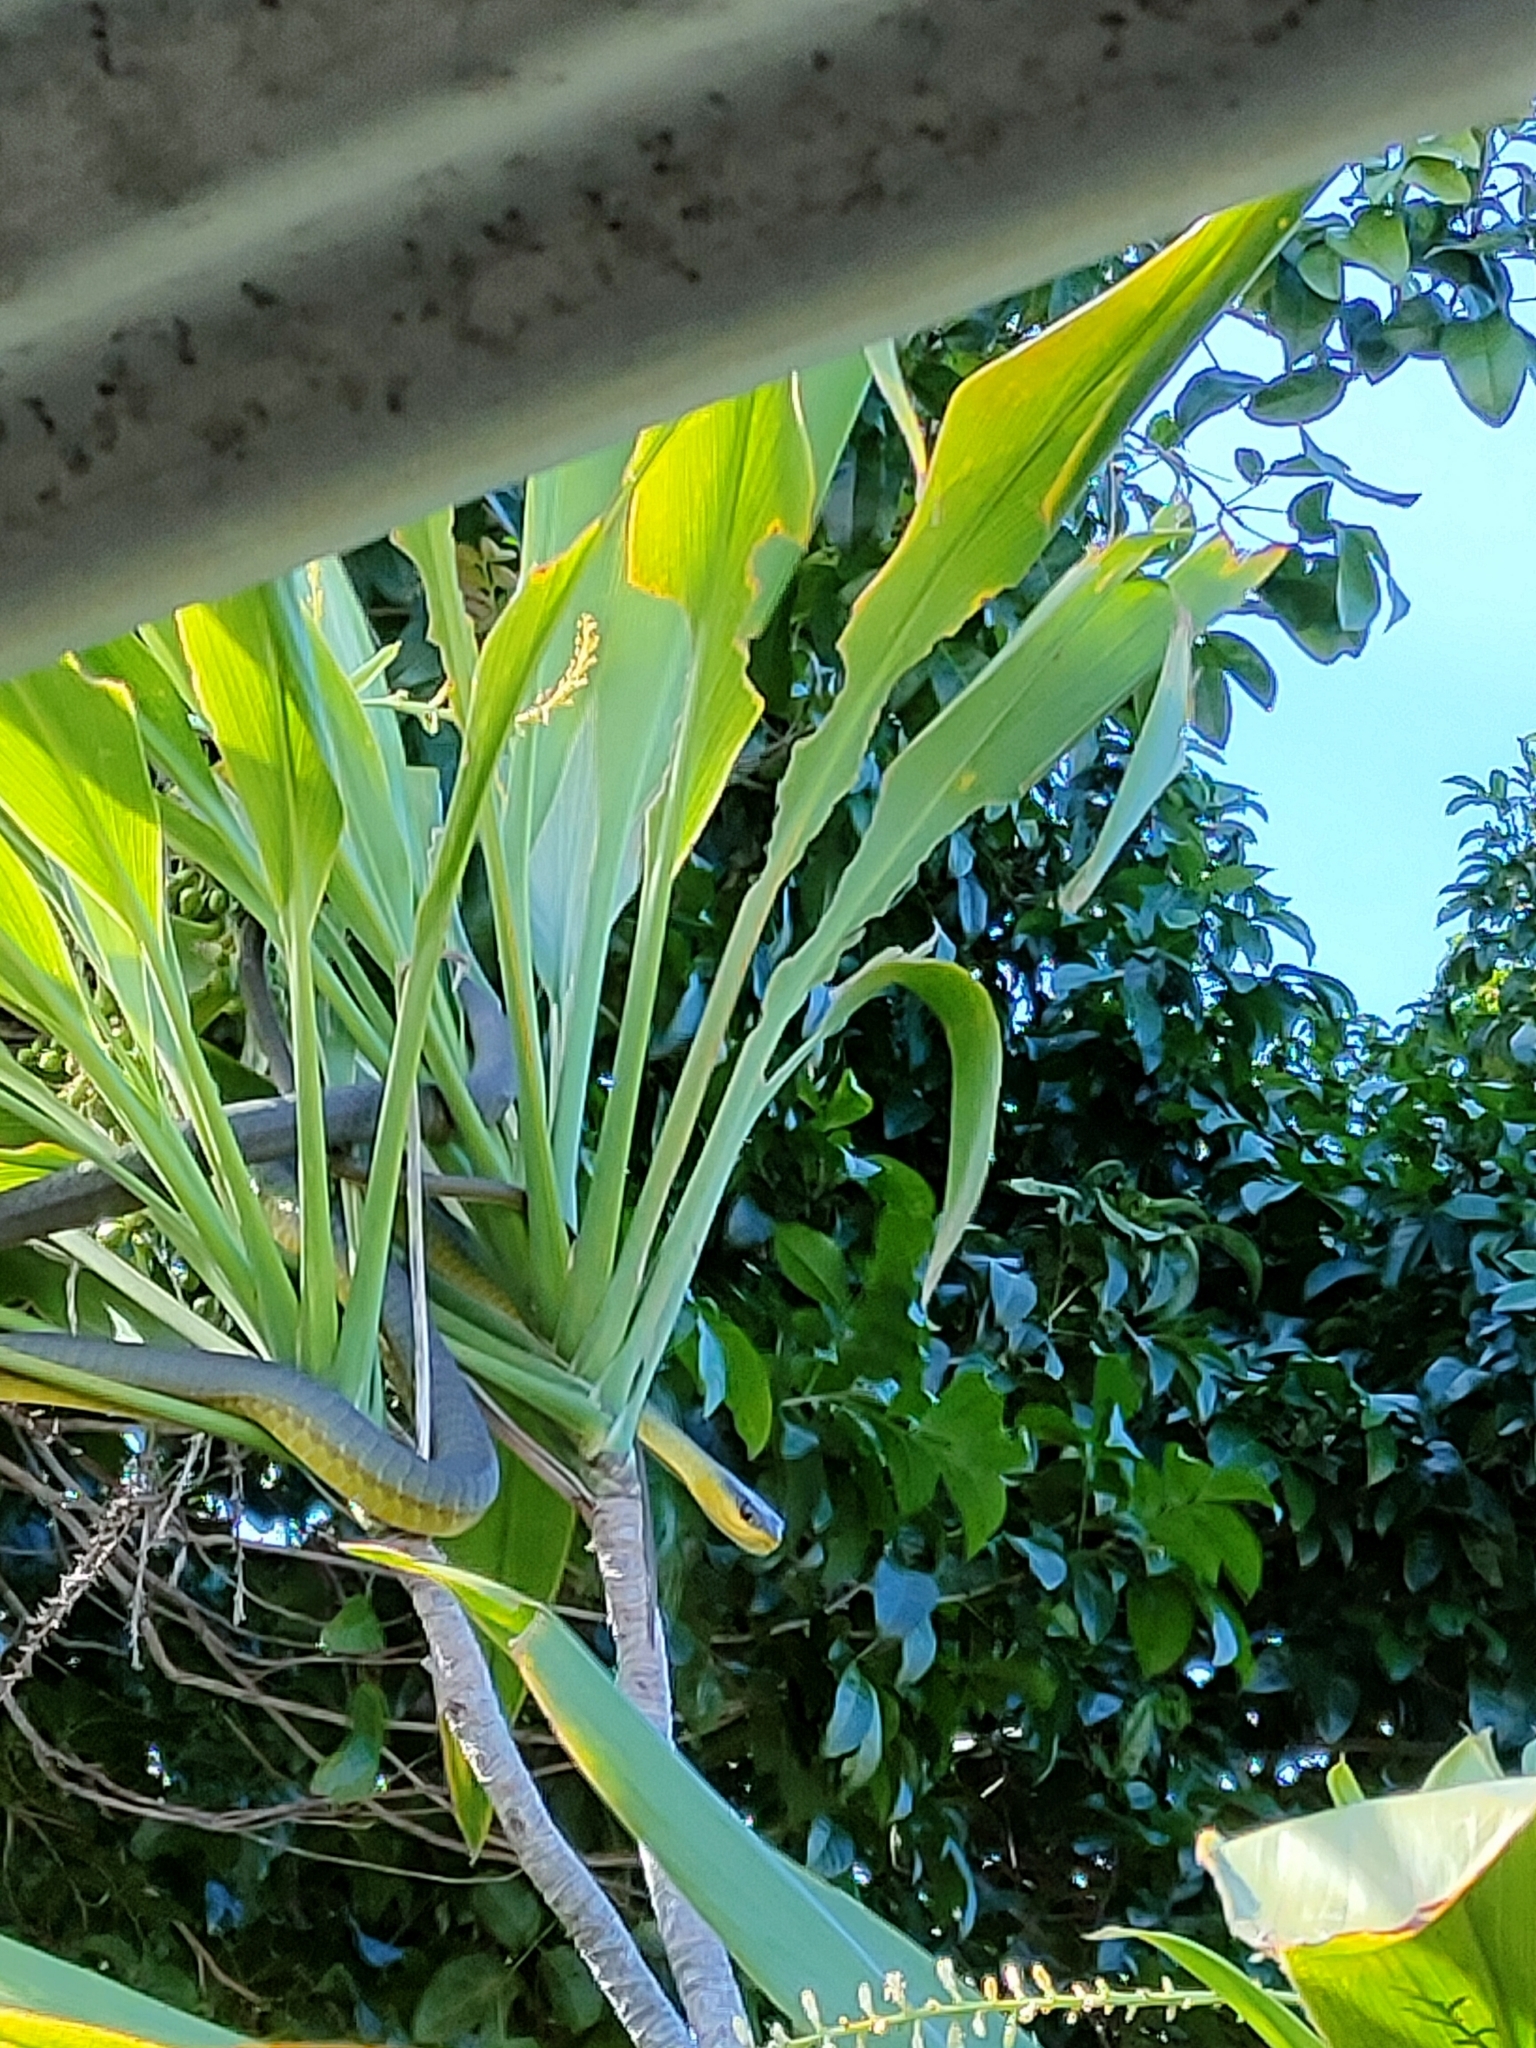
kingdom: Animalia
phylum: Chordata
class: Squamata
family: Colubridae
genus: Dendrelaphis
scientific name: Dendrelaphis punctulatus
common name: Common tree snake
